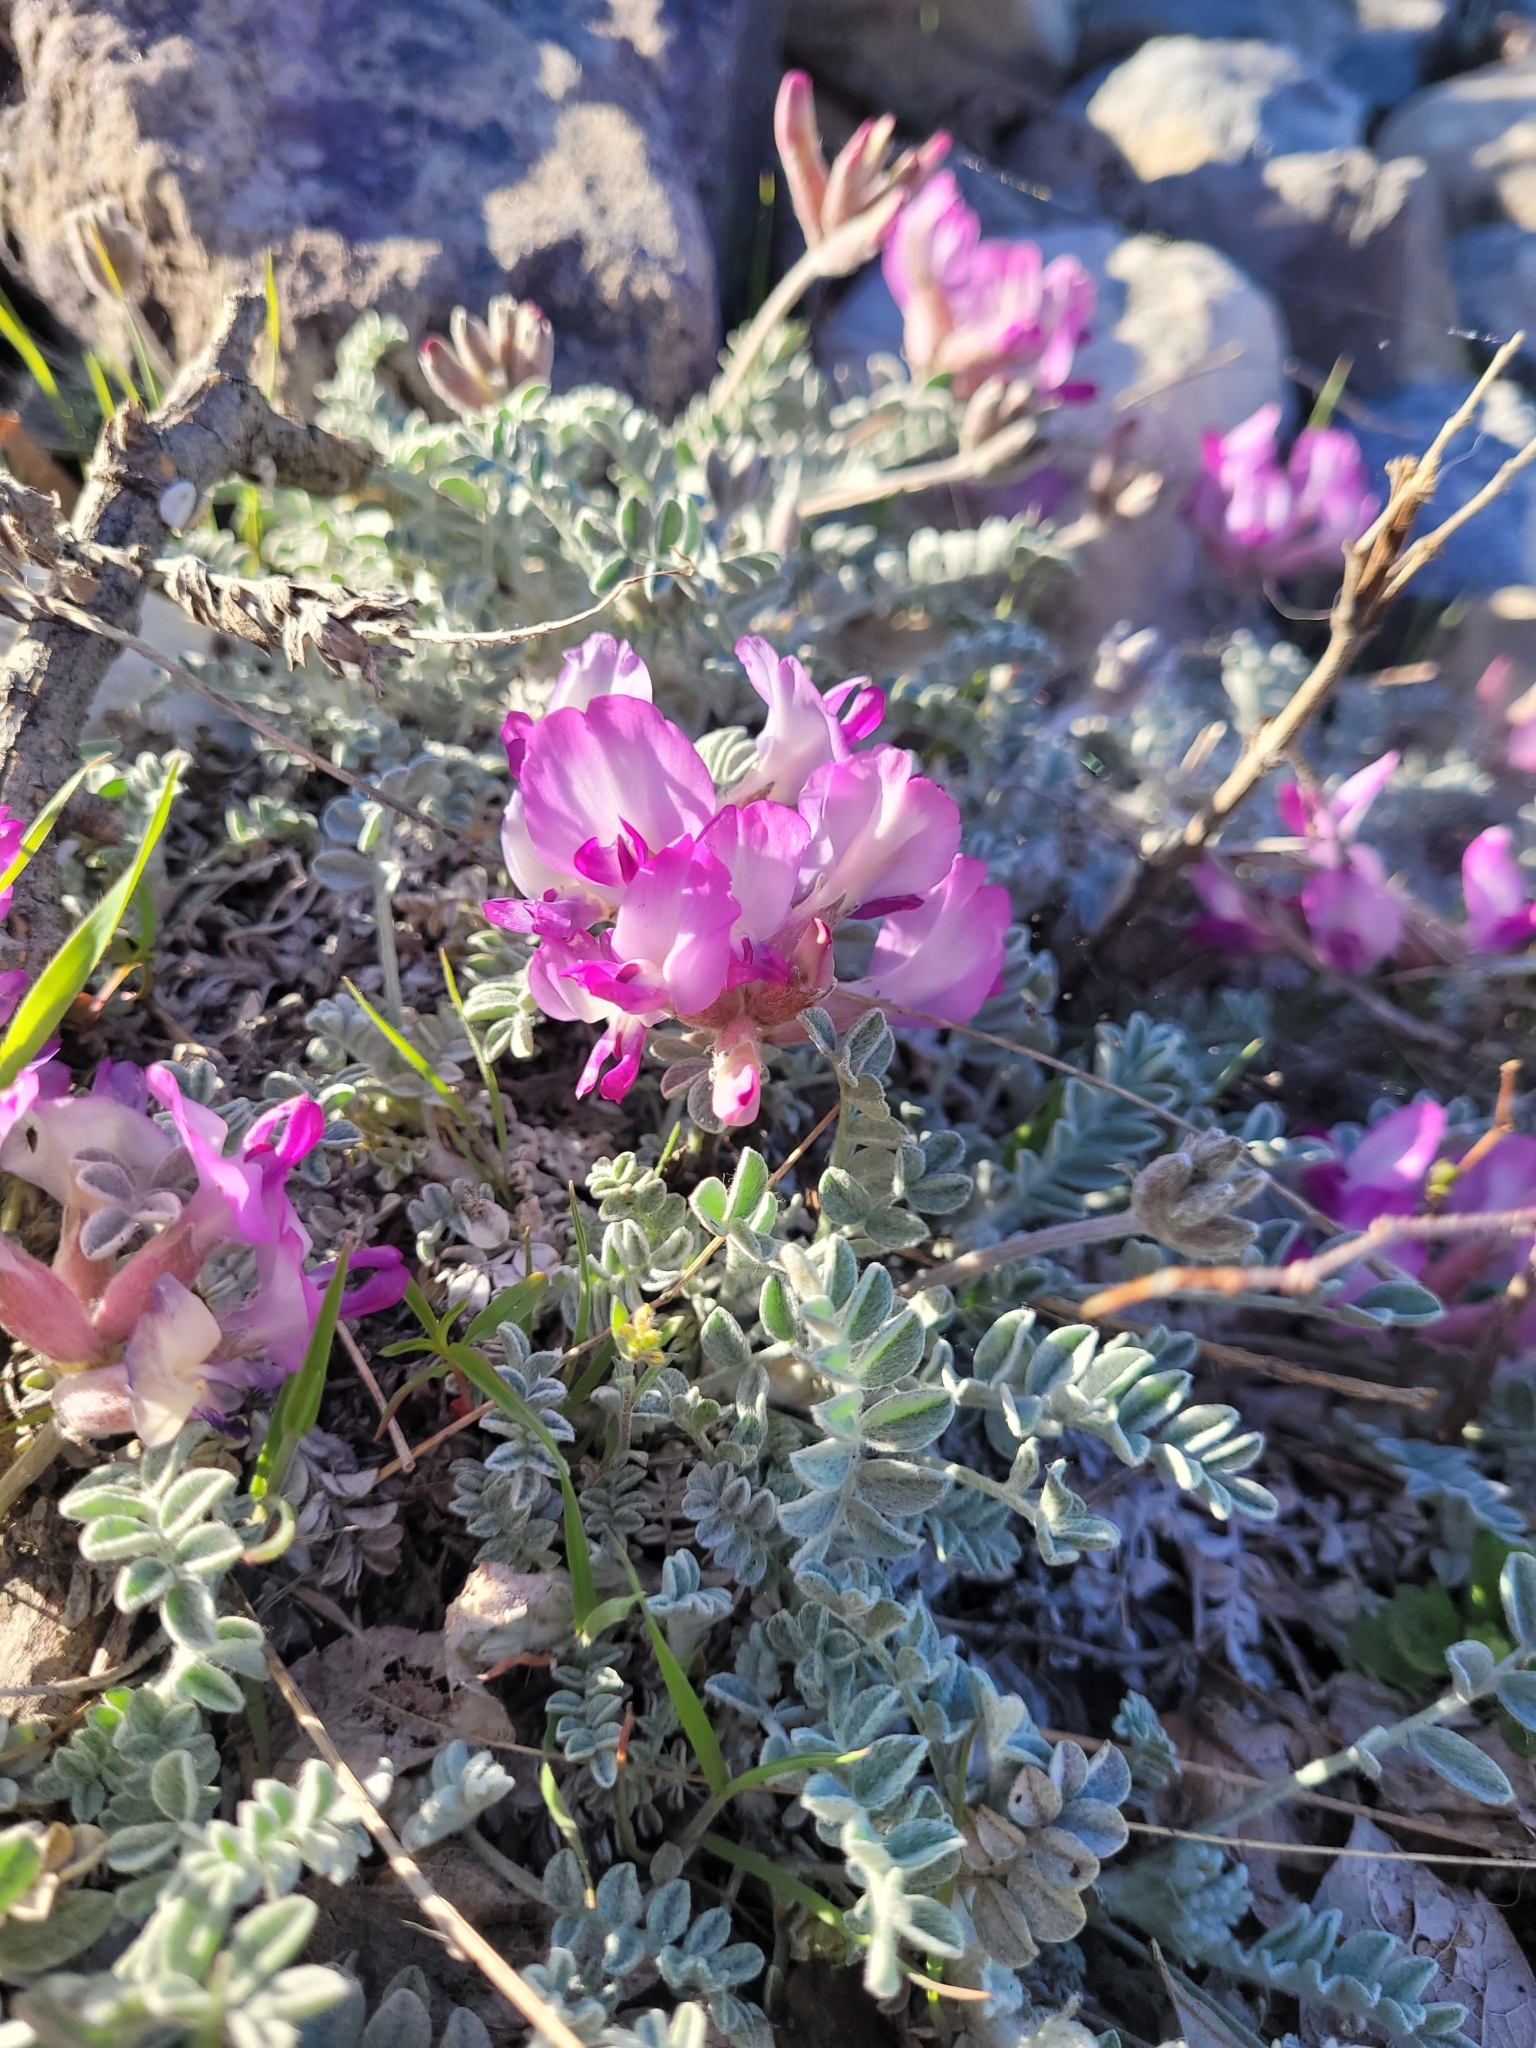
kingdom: Plantae
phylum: Tracheophyta
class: Magnoliopsida
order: Fabales
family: Fabaceae
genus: Astragalus
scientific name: Astragalus utahensis
